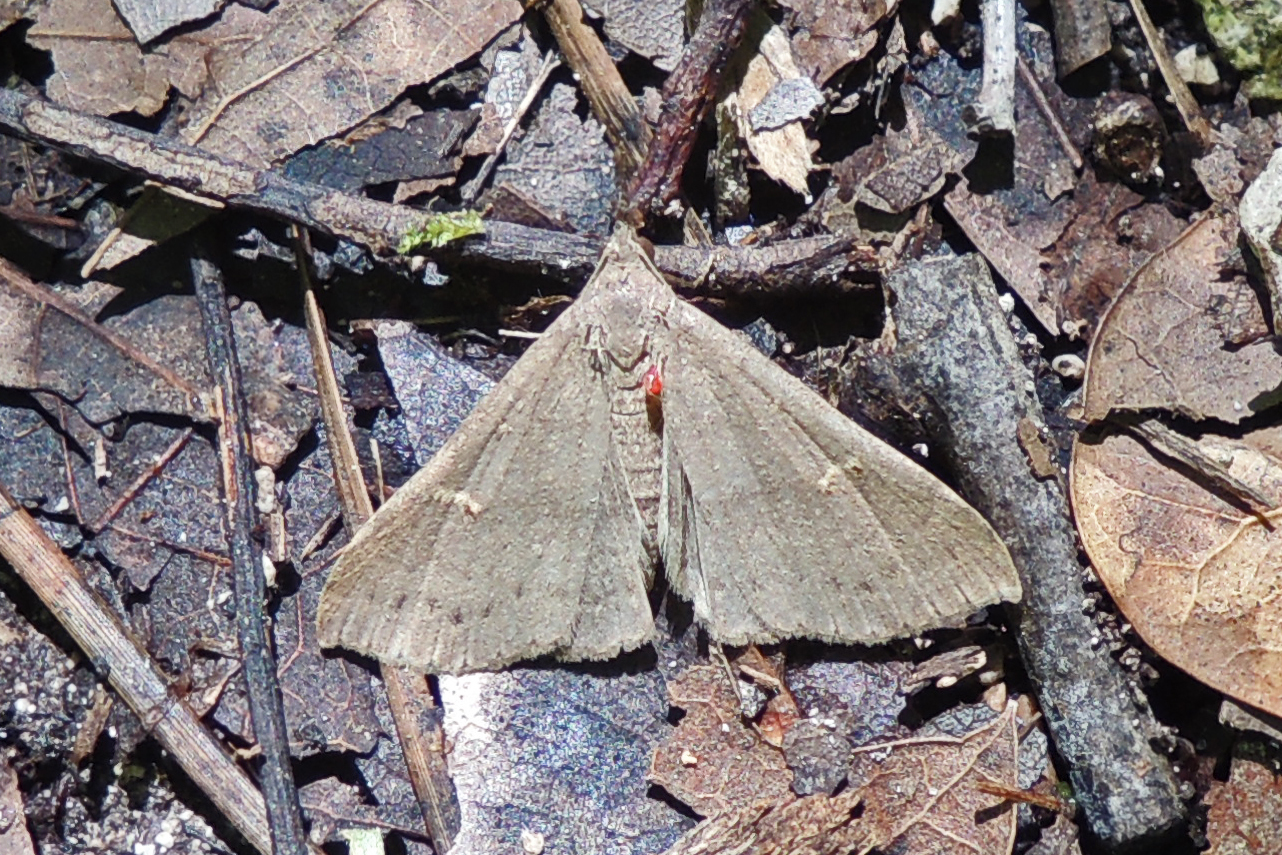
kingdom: Animalia
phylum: Arthropoda
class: Insecta
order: Lepidoptera
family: Erebidae
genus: Renia
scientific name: Renia adspergillus
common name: Speckled renia moth
